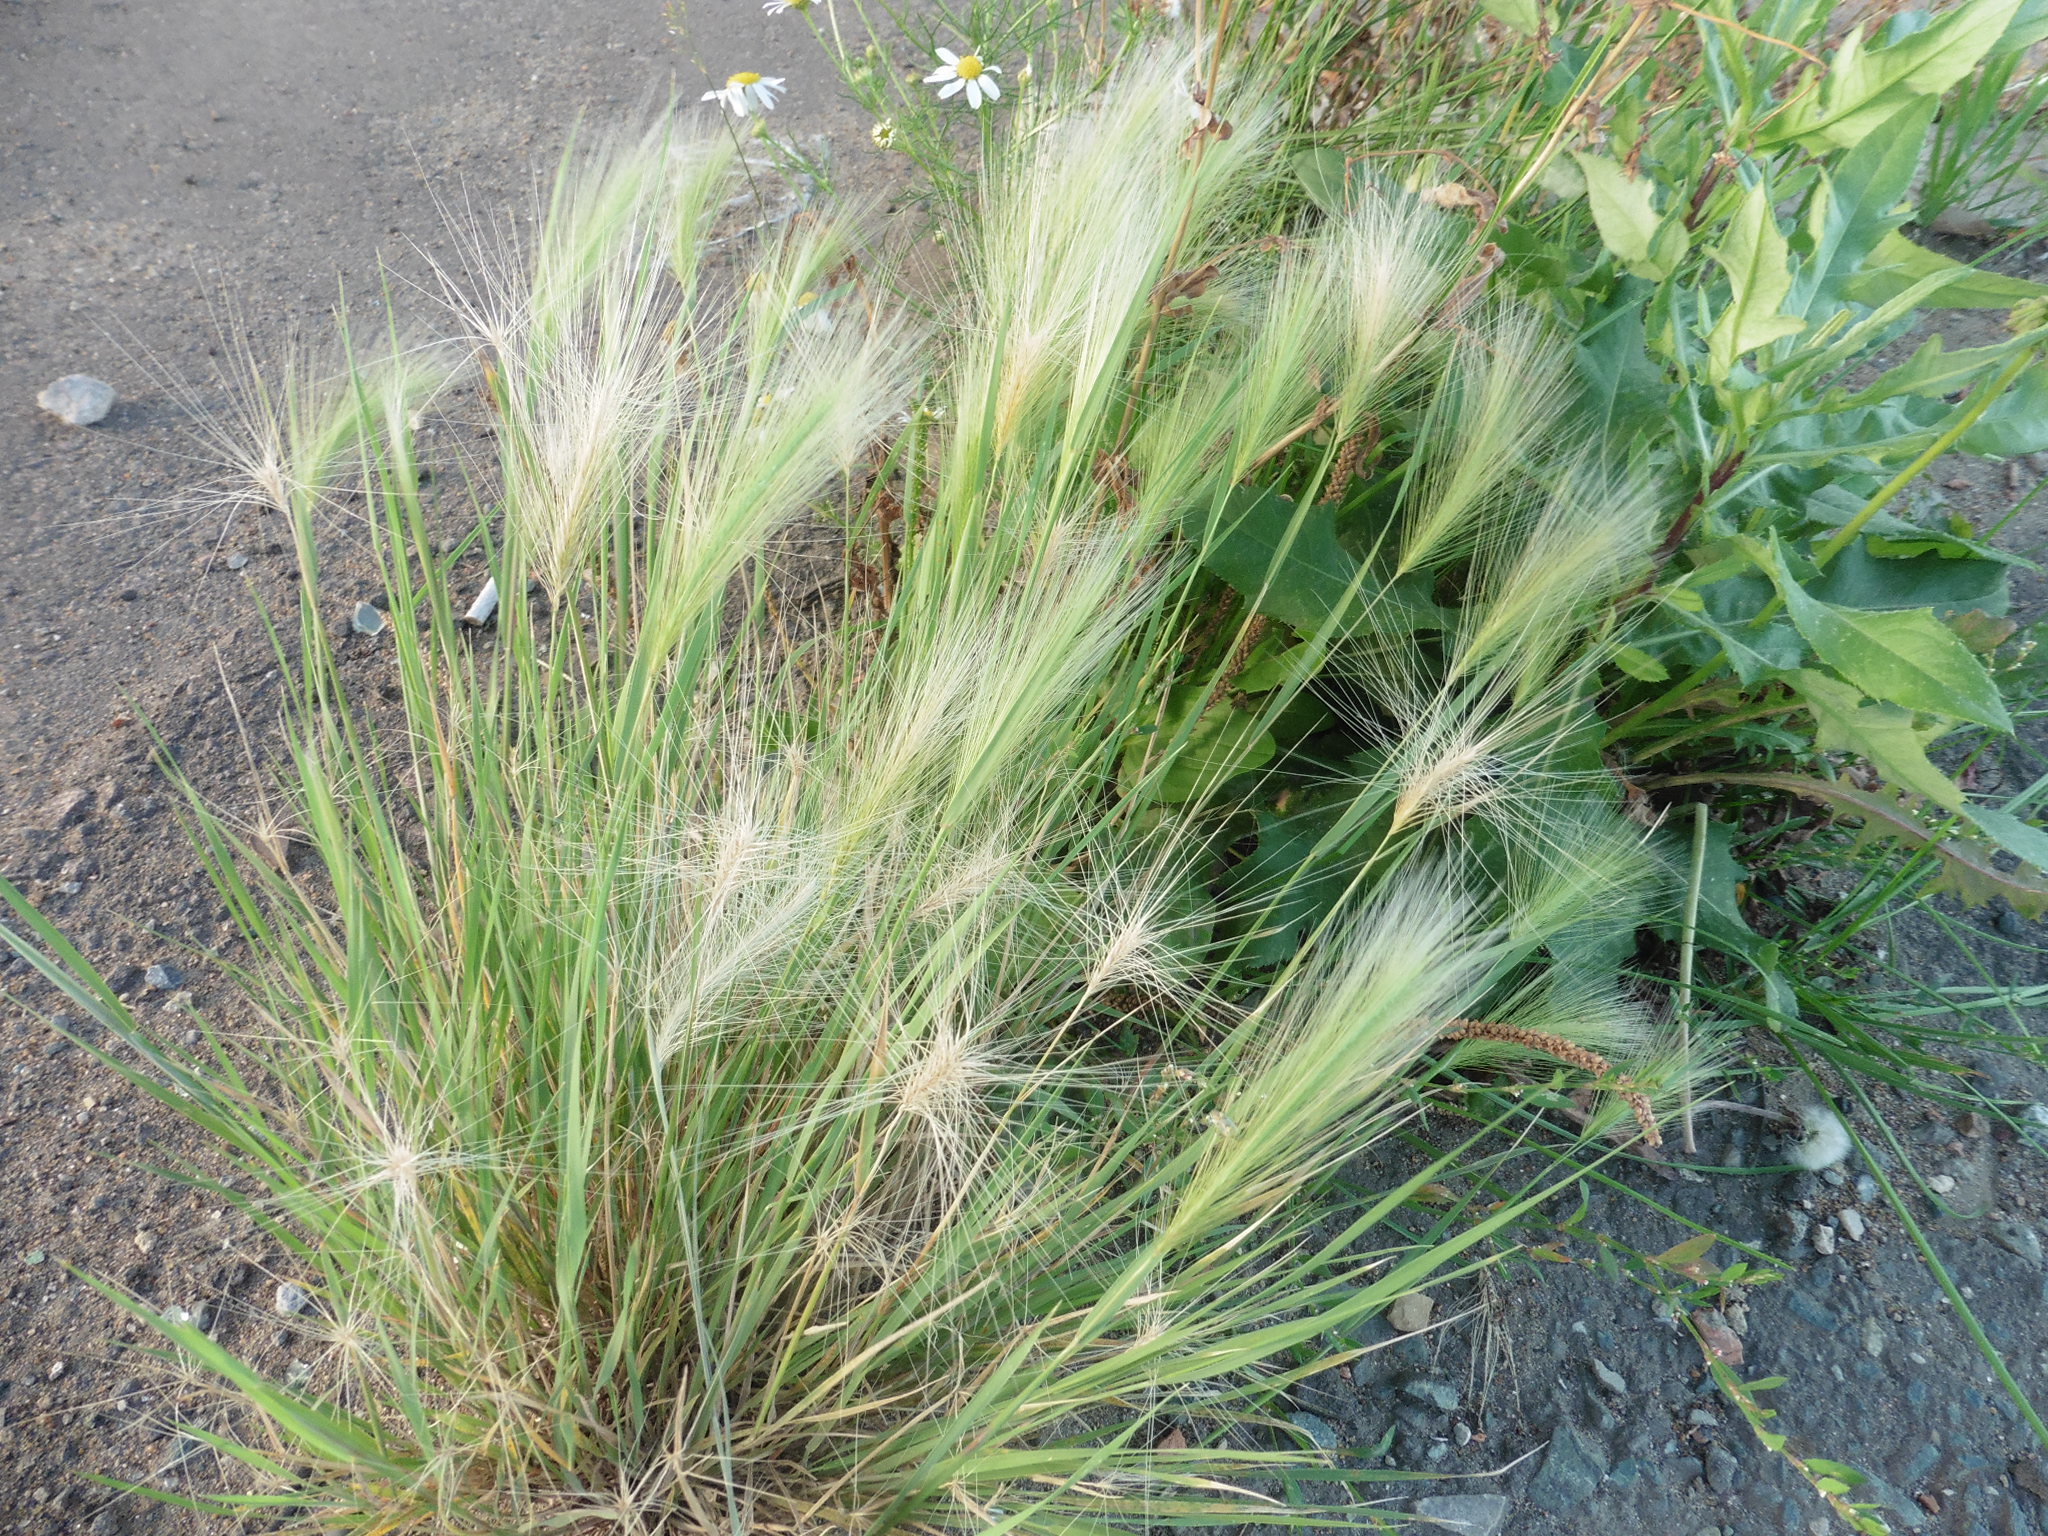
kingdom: Plantae
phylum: Tracheophyta
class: Liliopsida
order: Poales
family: Poaceae
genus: Hordeum
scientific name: Hordeum jubatum
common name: Foxtail barley
